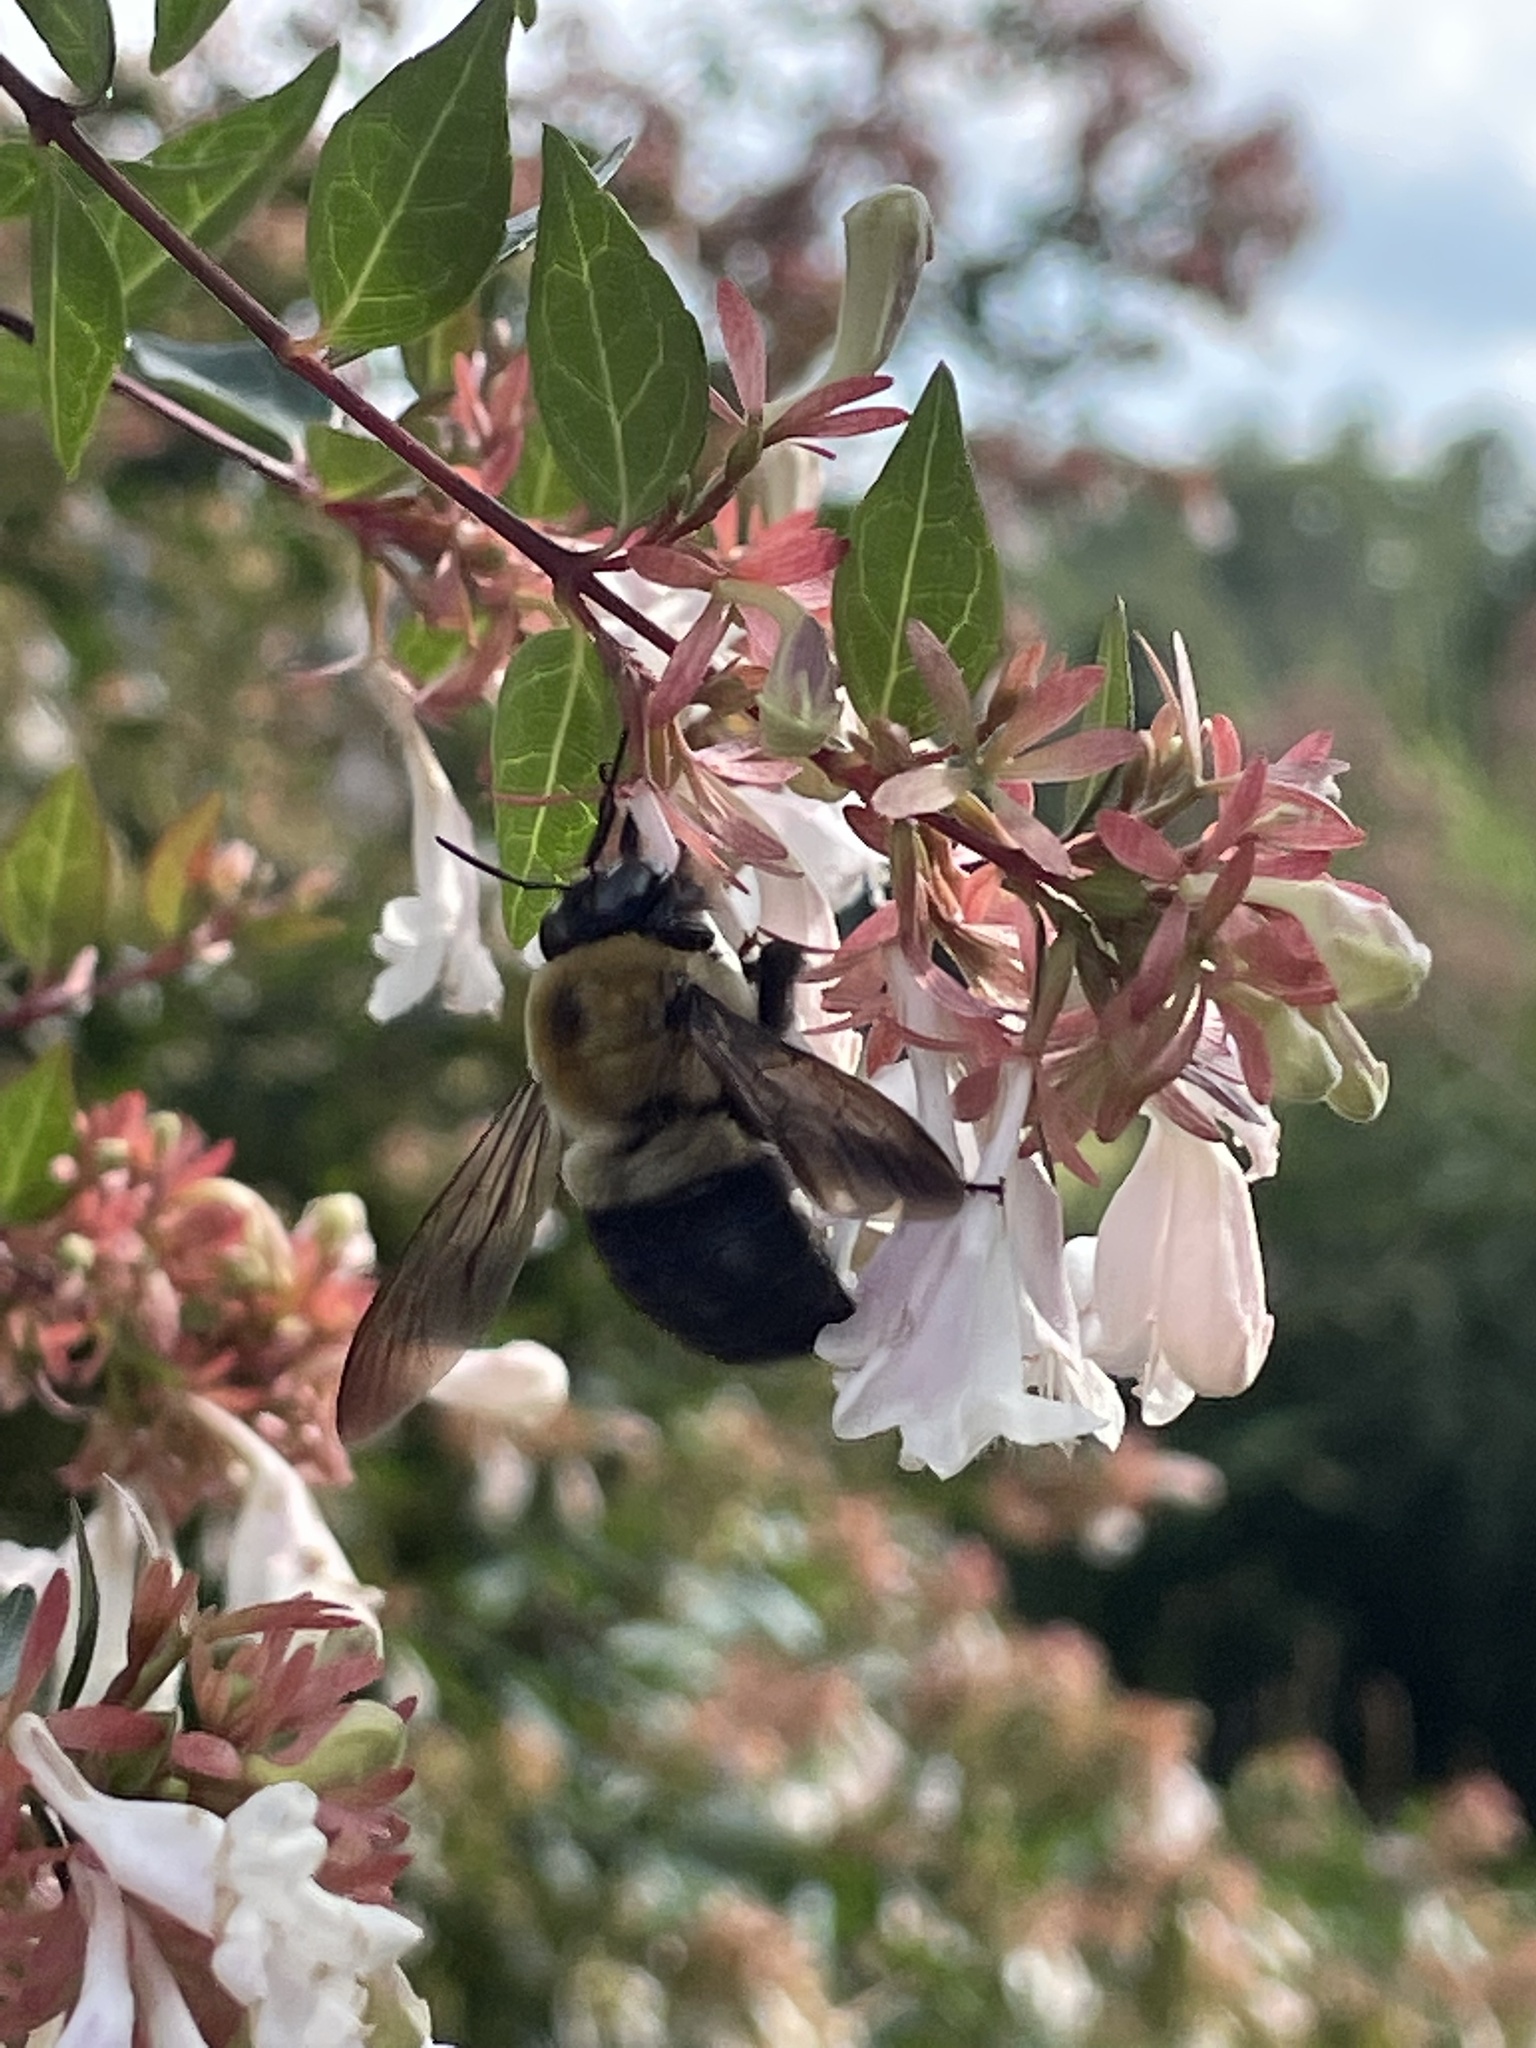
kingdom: Animalia
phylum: Arthropoda
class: Insecta
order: Hymenoptera
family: Apidae
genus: Xylocopa
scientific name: Xylocopa virginica
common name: Carpenter bee
